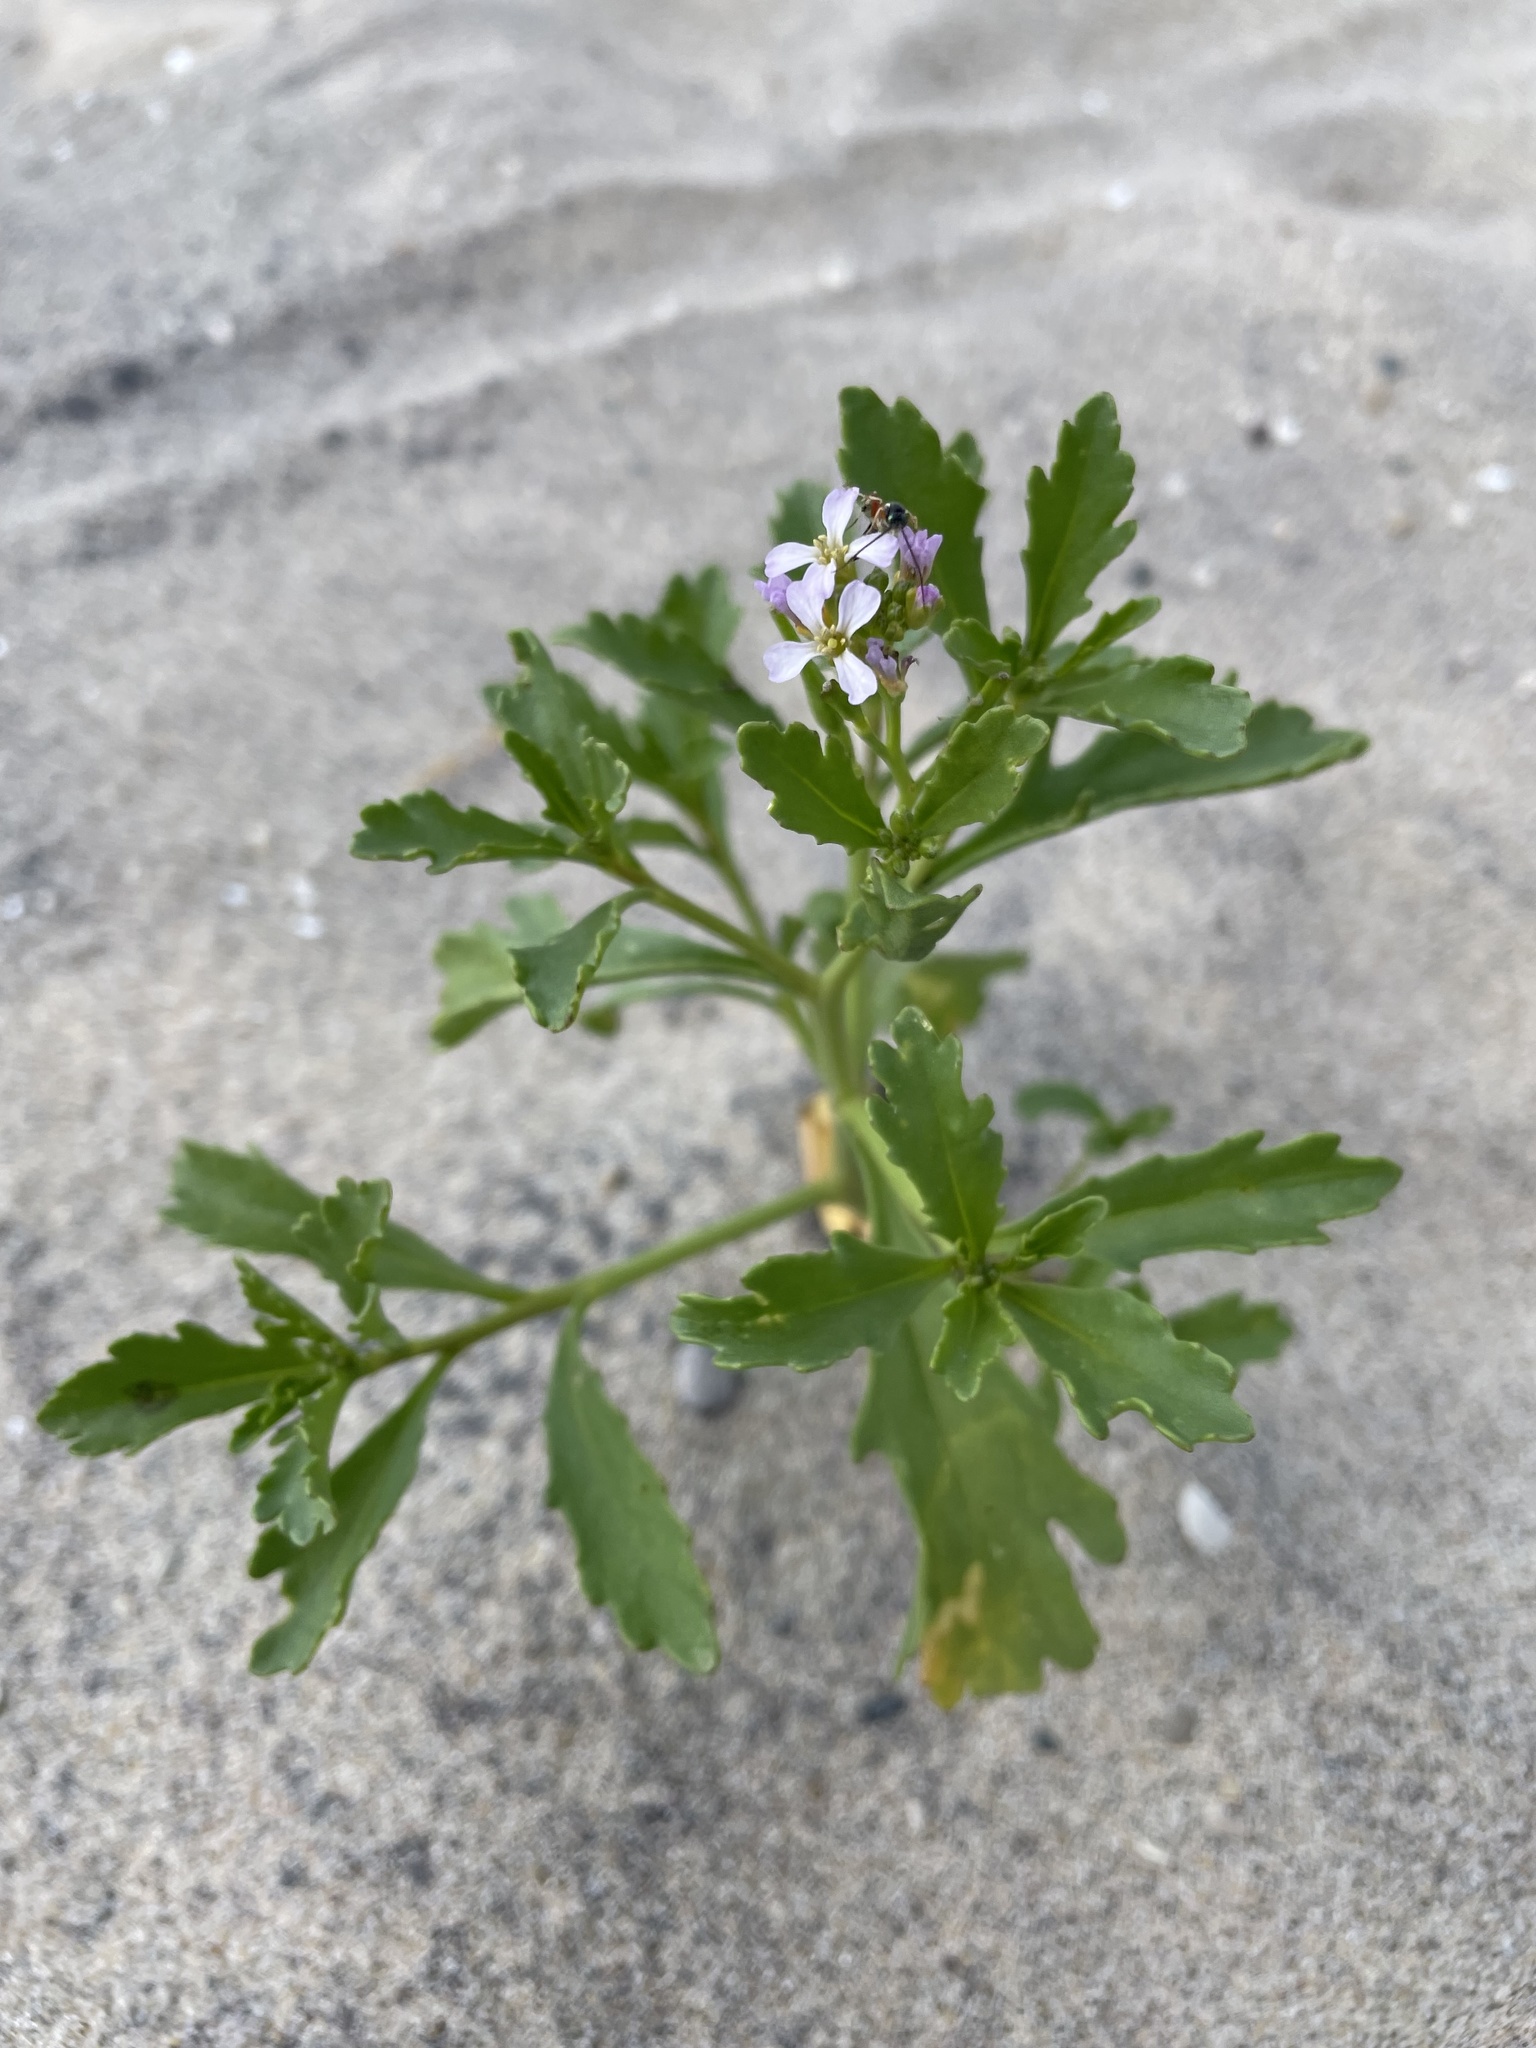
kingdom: Plantae
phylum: Tracheophyta
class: Magnoliopsida
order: Brassicales
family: Brassicaceae
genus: Cakile
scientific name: Cakile edentula
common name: American sea rocket
